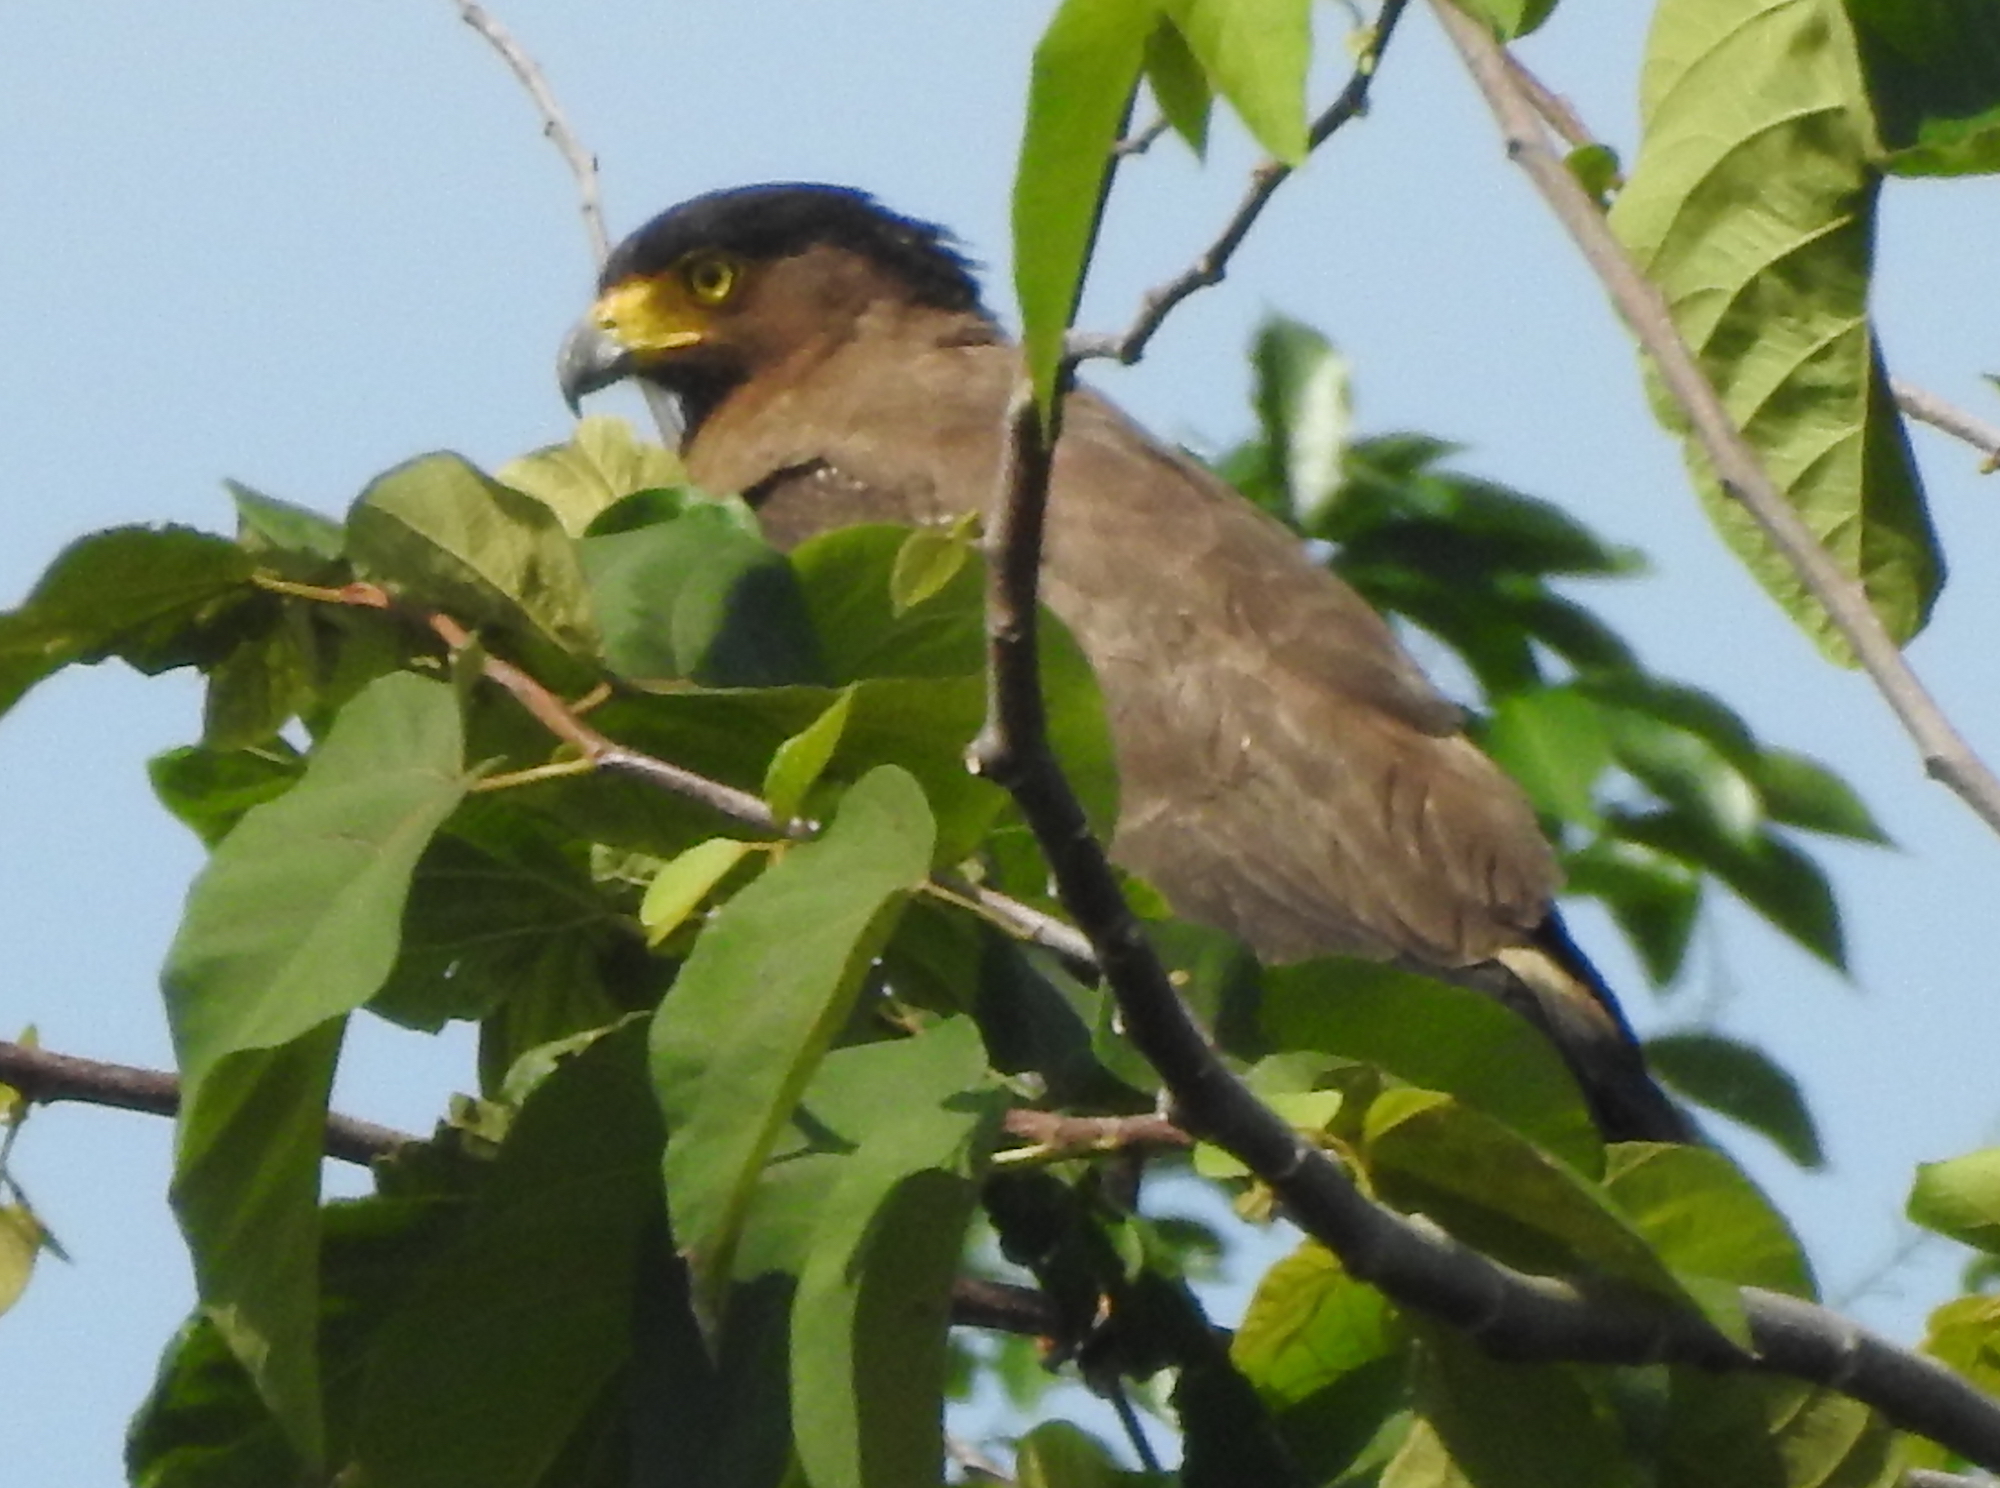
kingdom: Animalia
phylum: Chordata
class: Aves
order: Accipitriformes
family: Accipitridae
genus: Spilornis
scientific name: Spilornis cheela
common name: Crested serpent eagle
